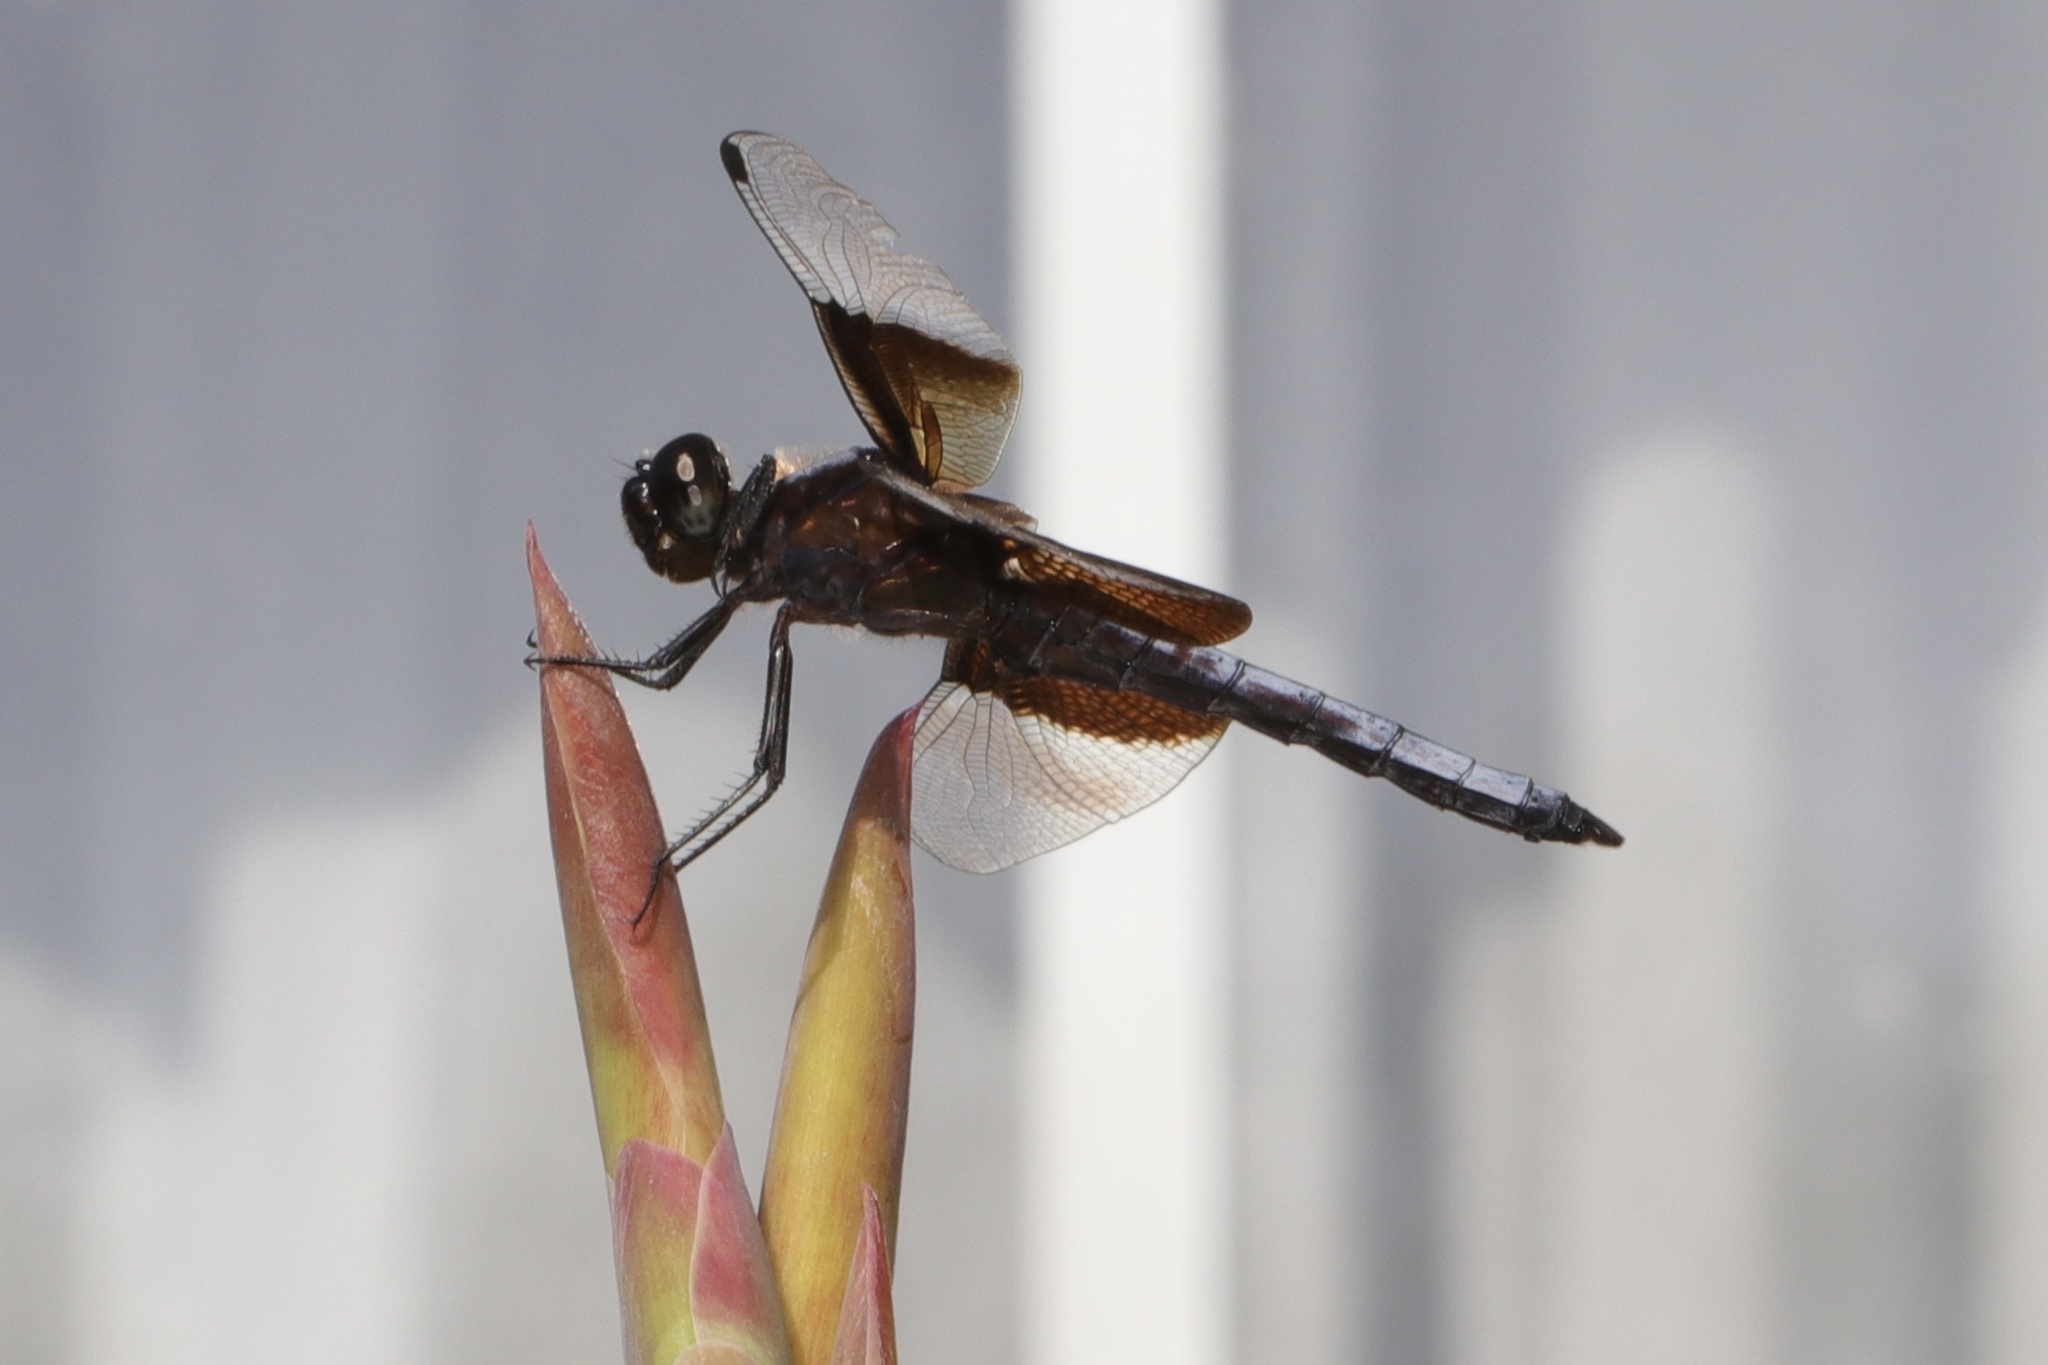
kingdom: Animalia
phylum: Arthropoda
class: Insecta
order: Odonata
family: Libellulidae
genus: Libellula
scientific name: Libellula luctuosa
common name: Widow skimmer
